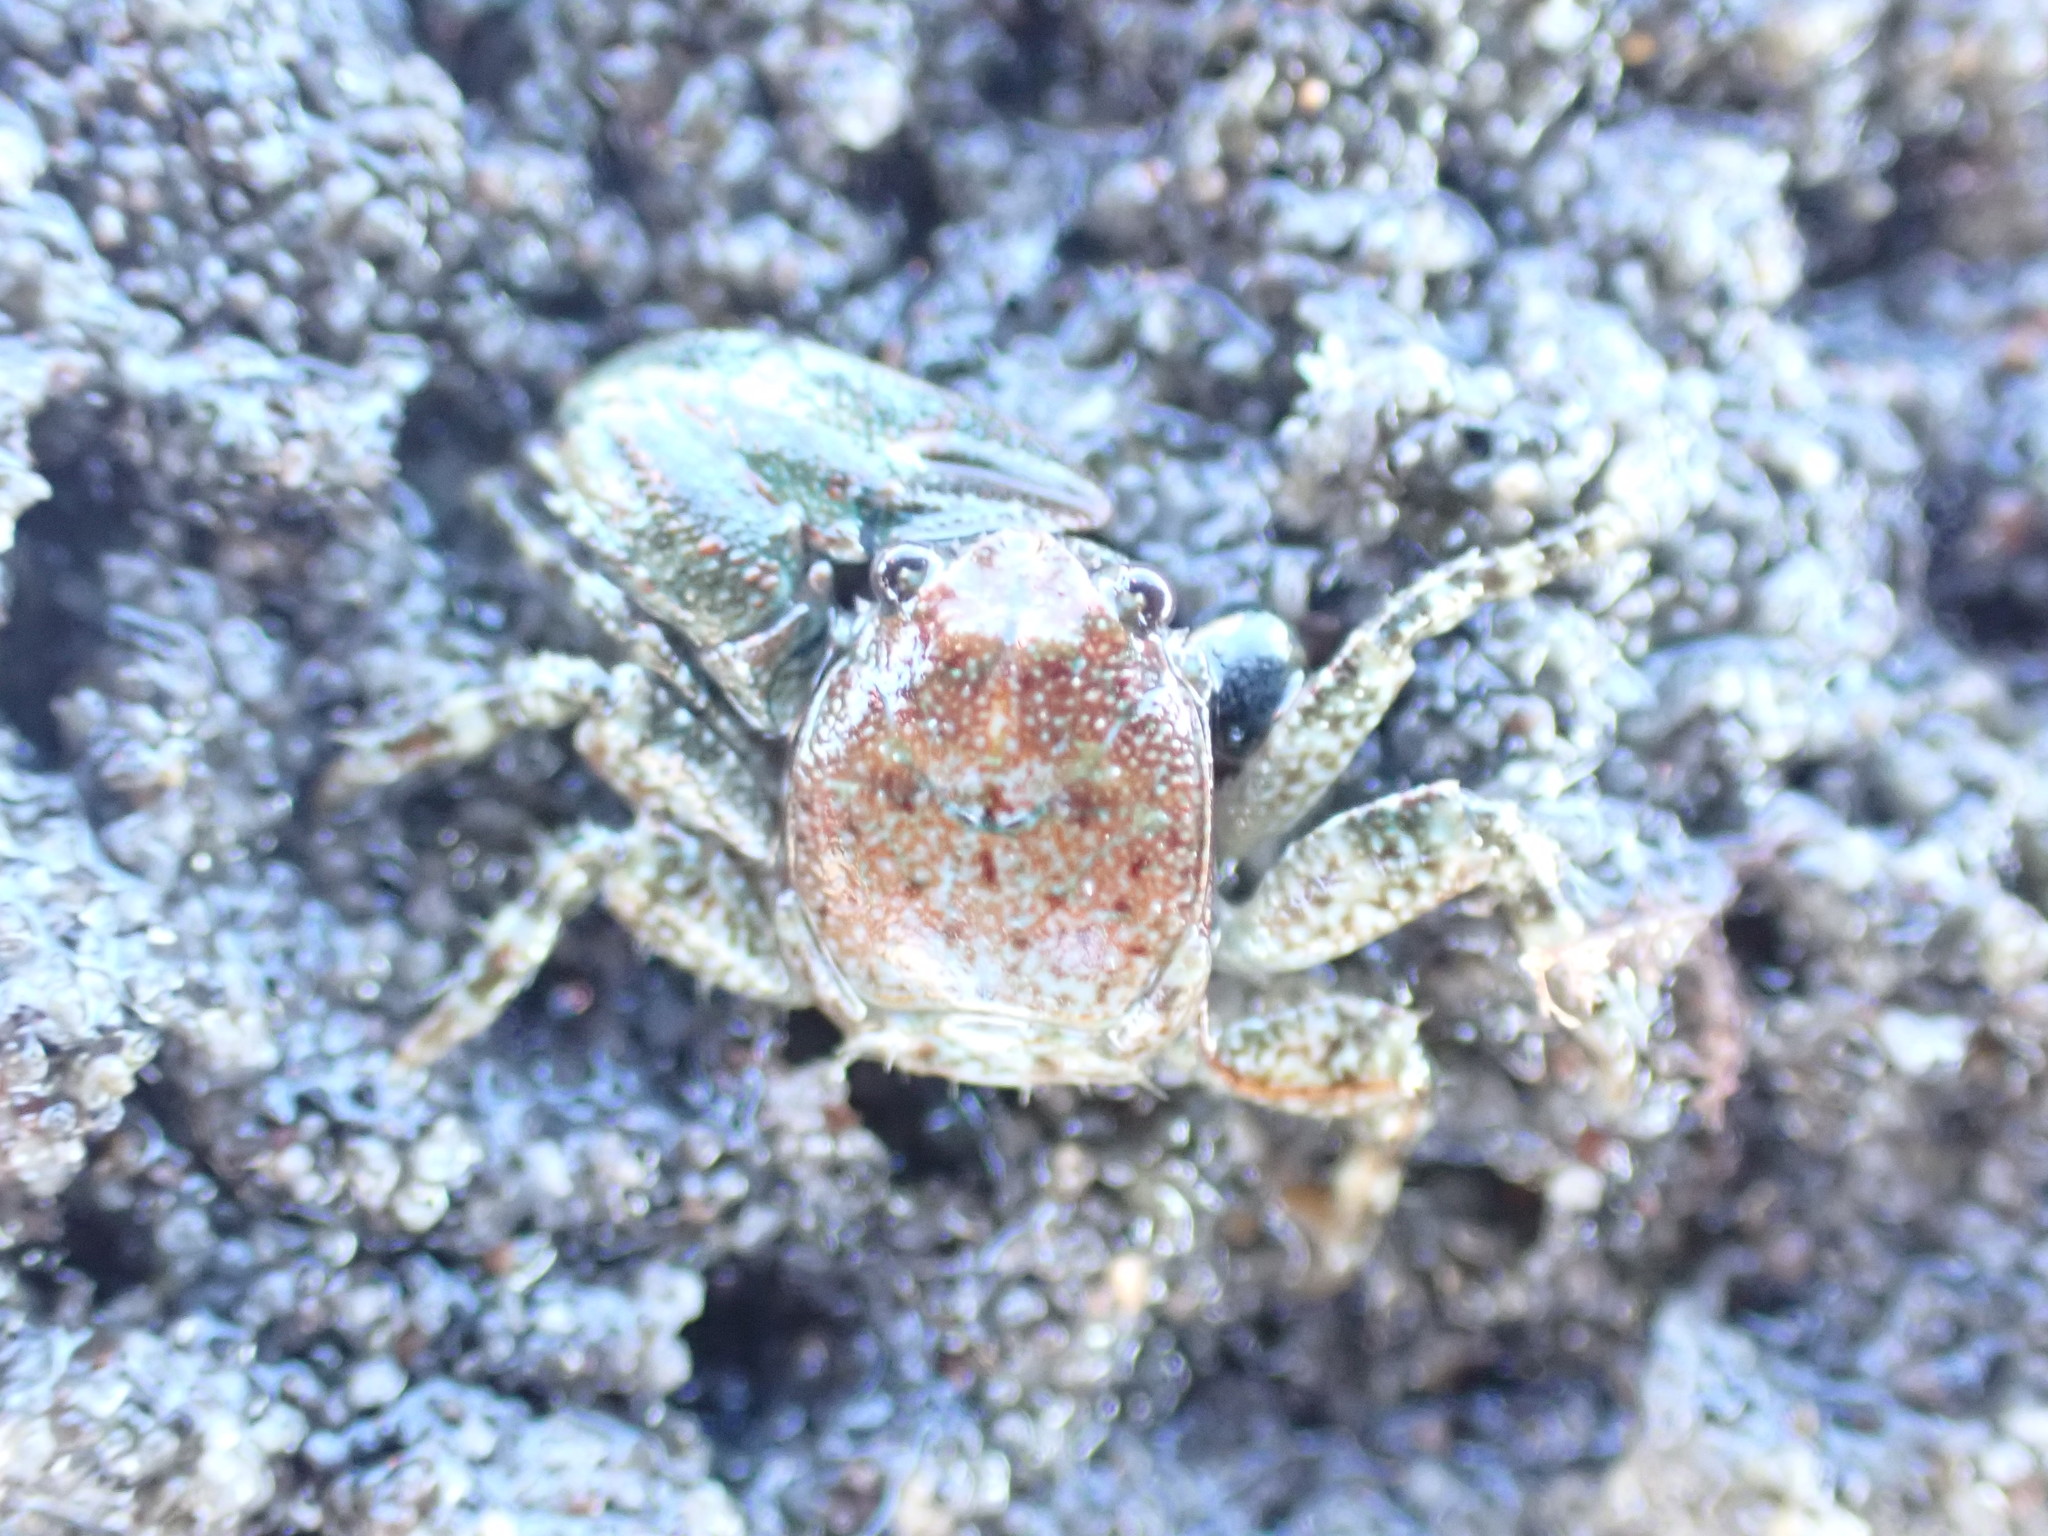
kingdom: Animalia
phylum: Arthropoda
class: Malacostraca
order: Decapoda
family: Porcellanidae
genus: Petrolisthes
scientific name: Petrolisthes elongatus
